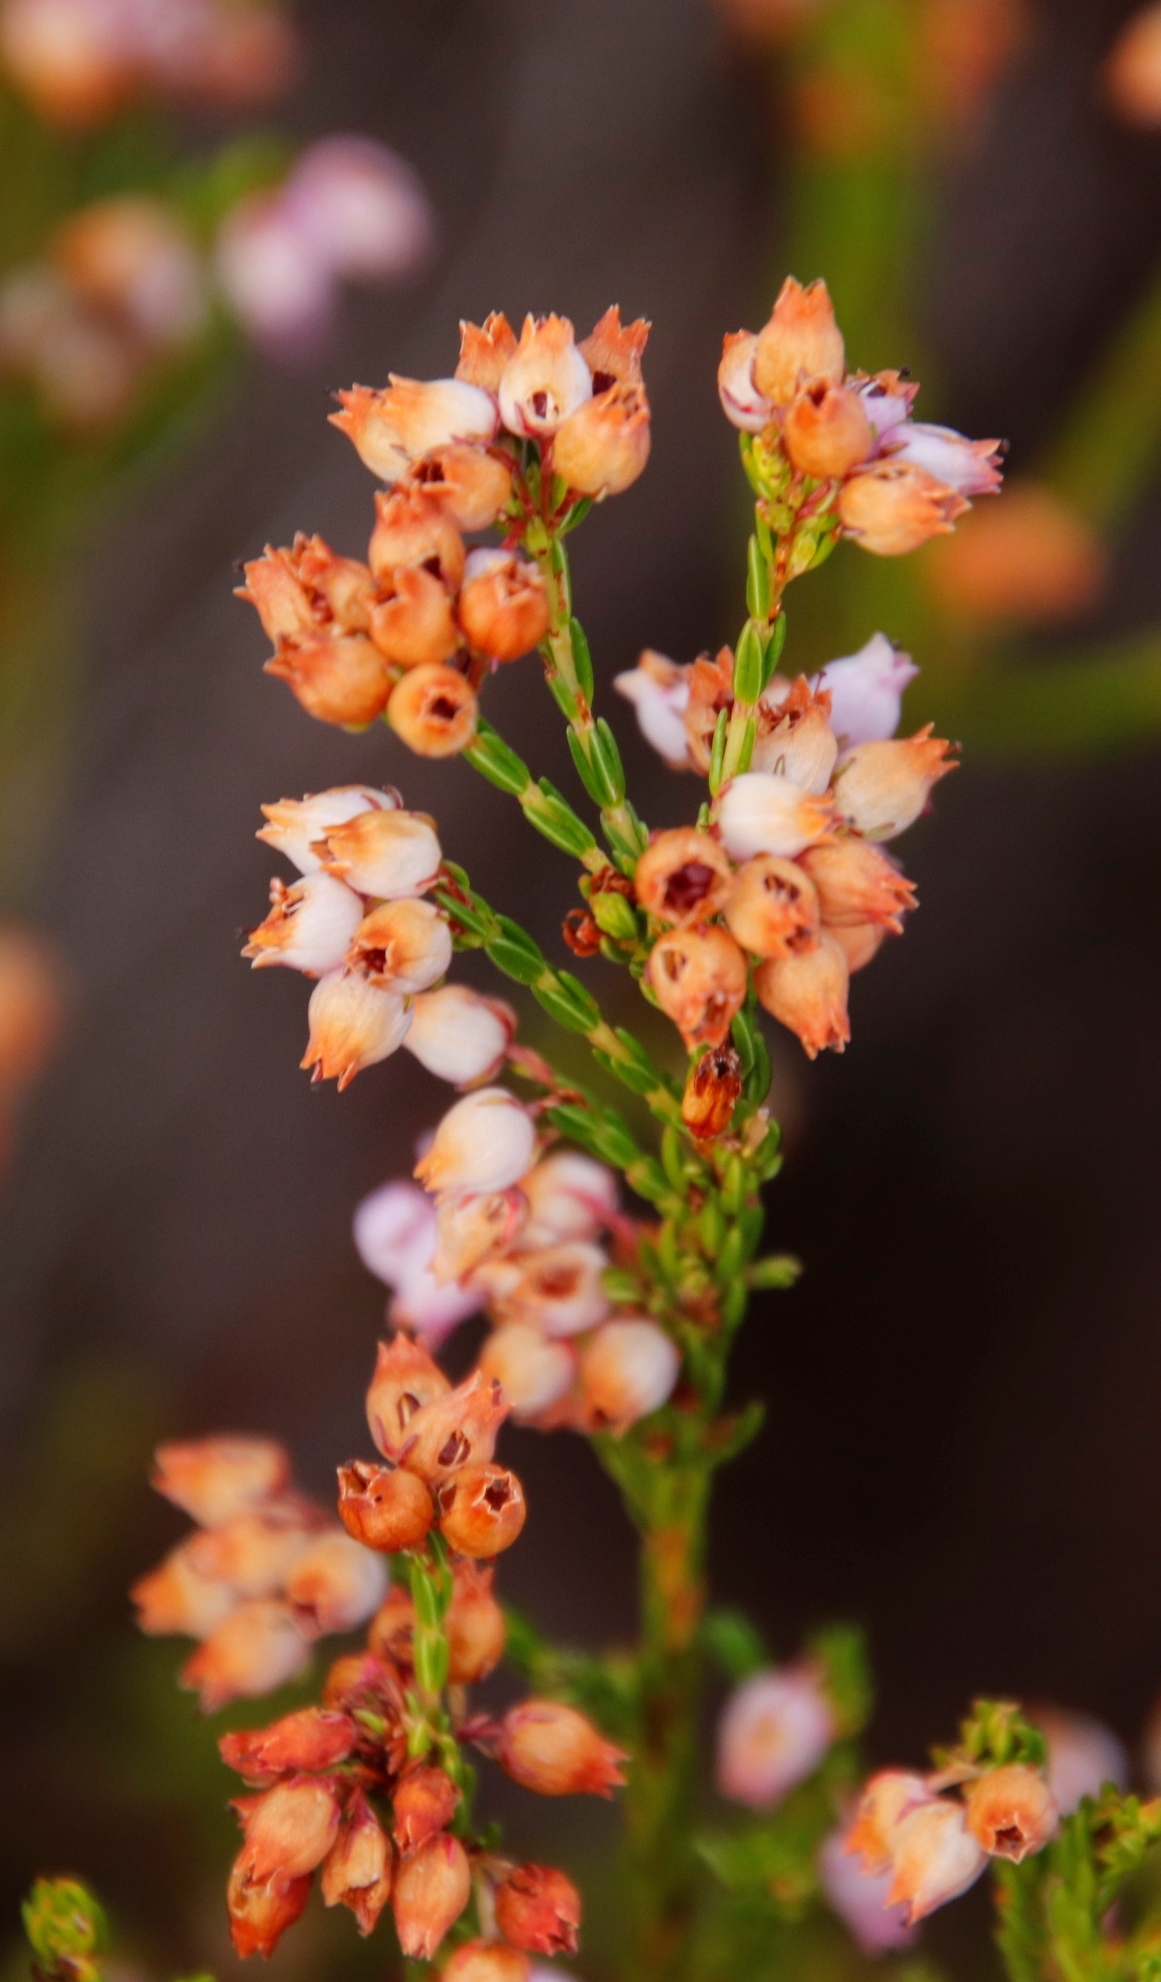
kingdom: Plantae
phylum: Tracheophyta
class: Magnoliopsida
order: Ericales
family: Ericaceae
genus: Erica
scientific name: Erica laeta
